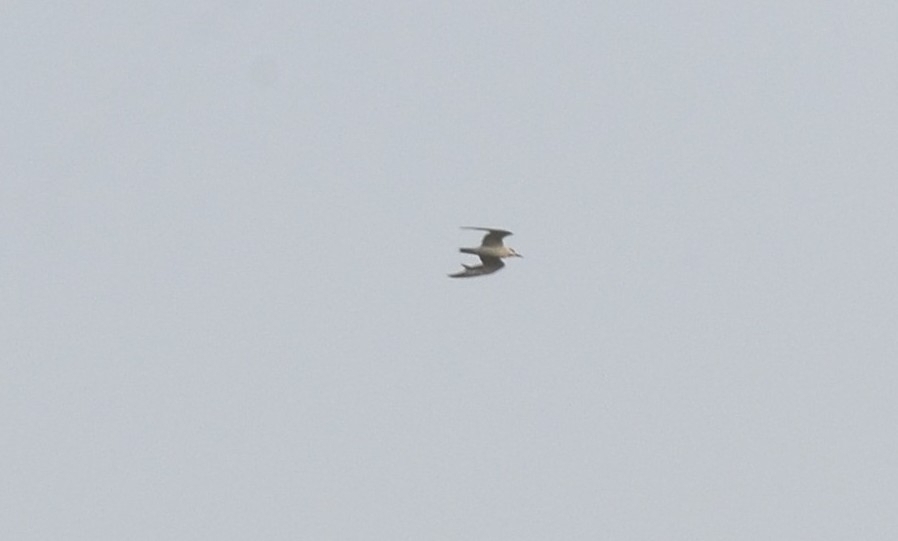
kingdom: Animalia
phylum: Chordata
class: Aves
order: Charadriiformes
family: Laridae
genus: Chlidonias
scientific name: Chlidonias hybrida
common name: Whiskered tern
